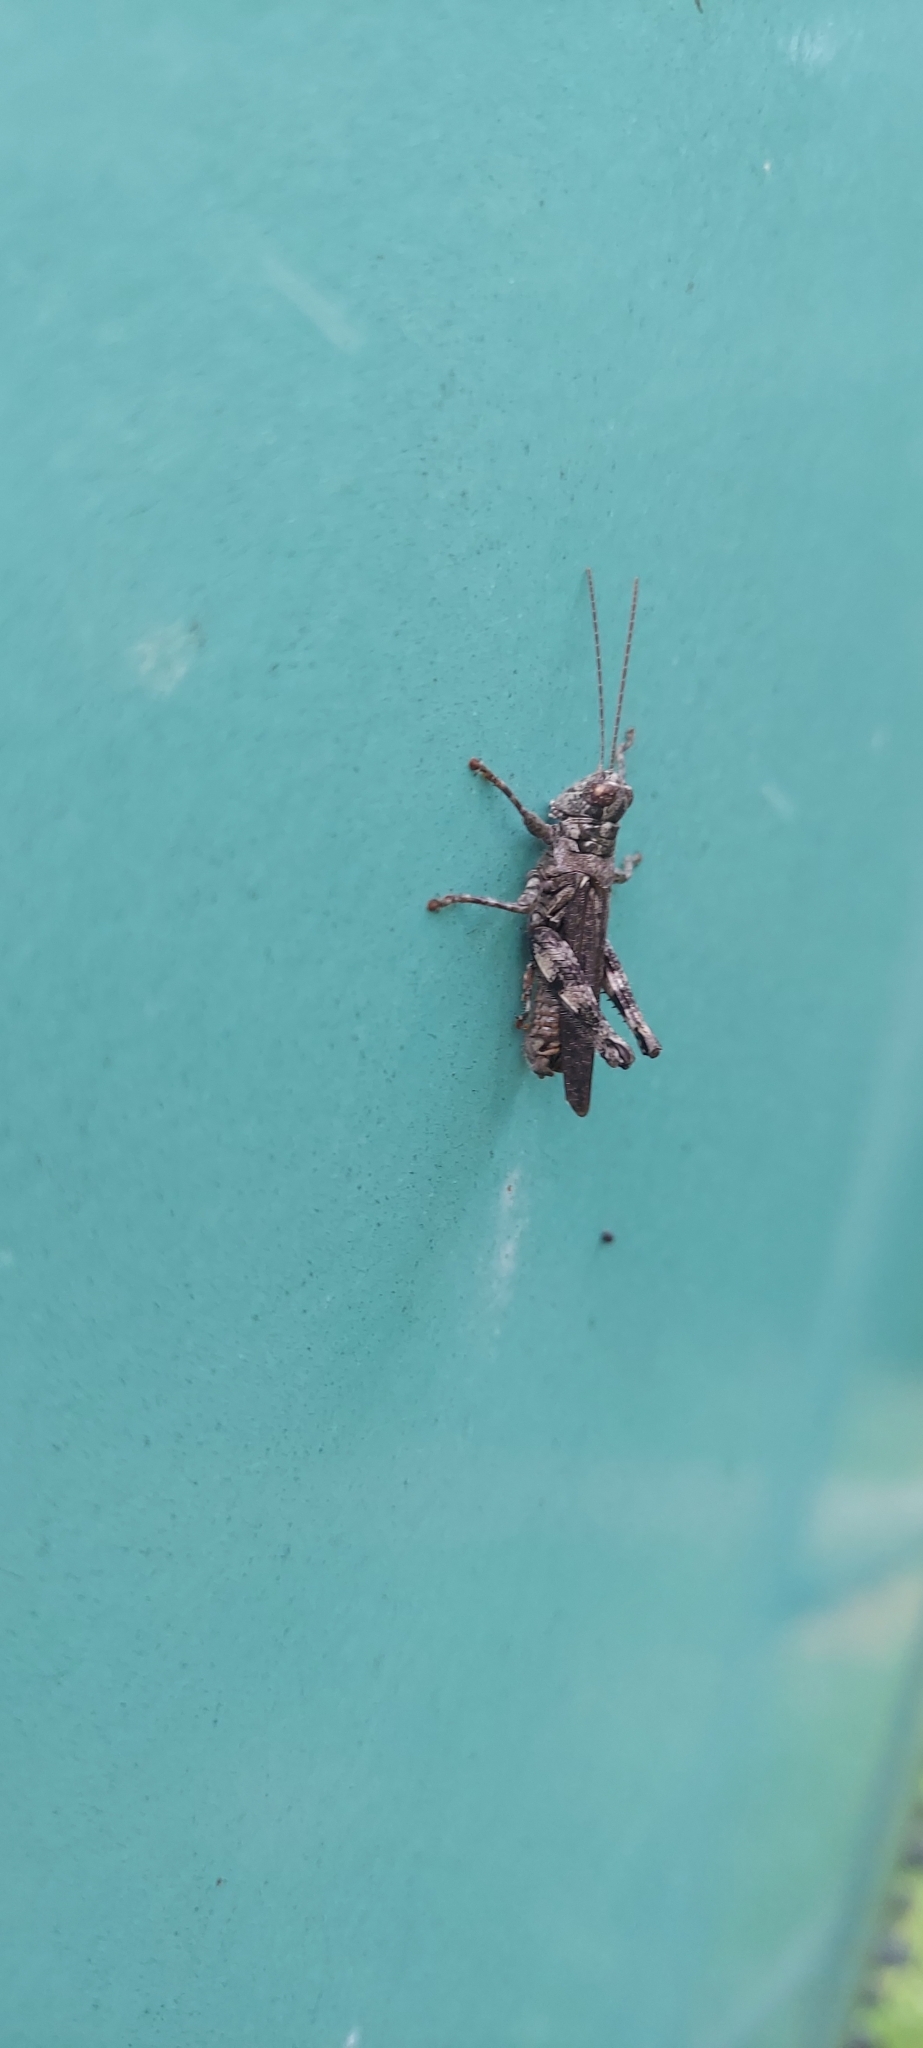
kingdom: Animalia
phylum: Arthropoda
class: Insecta
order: Orthoptera
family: Acrididae
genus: Melanoplus
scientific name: Melanoplus punctulatus
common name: Pine-tree spur-throat grasshopper
